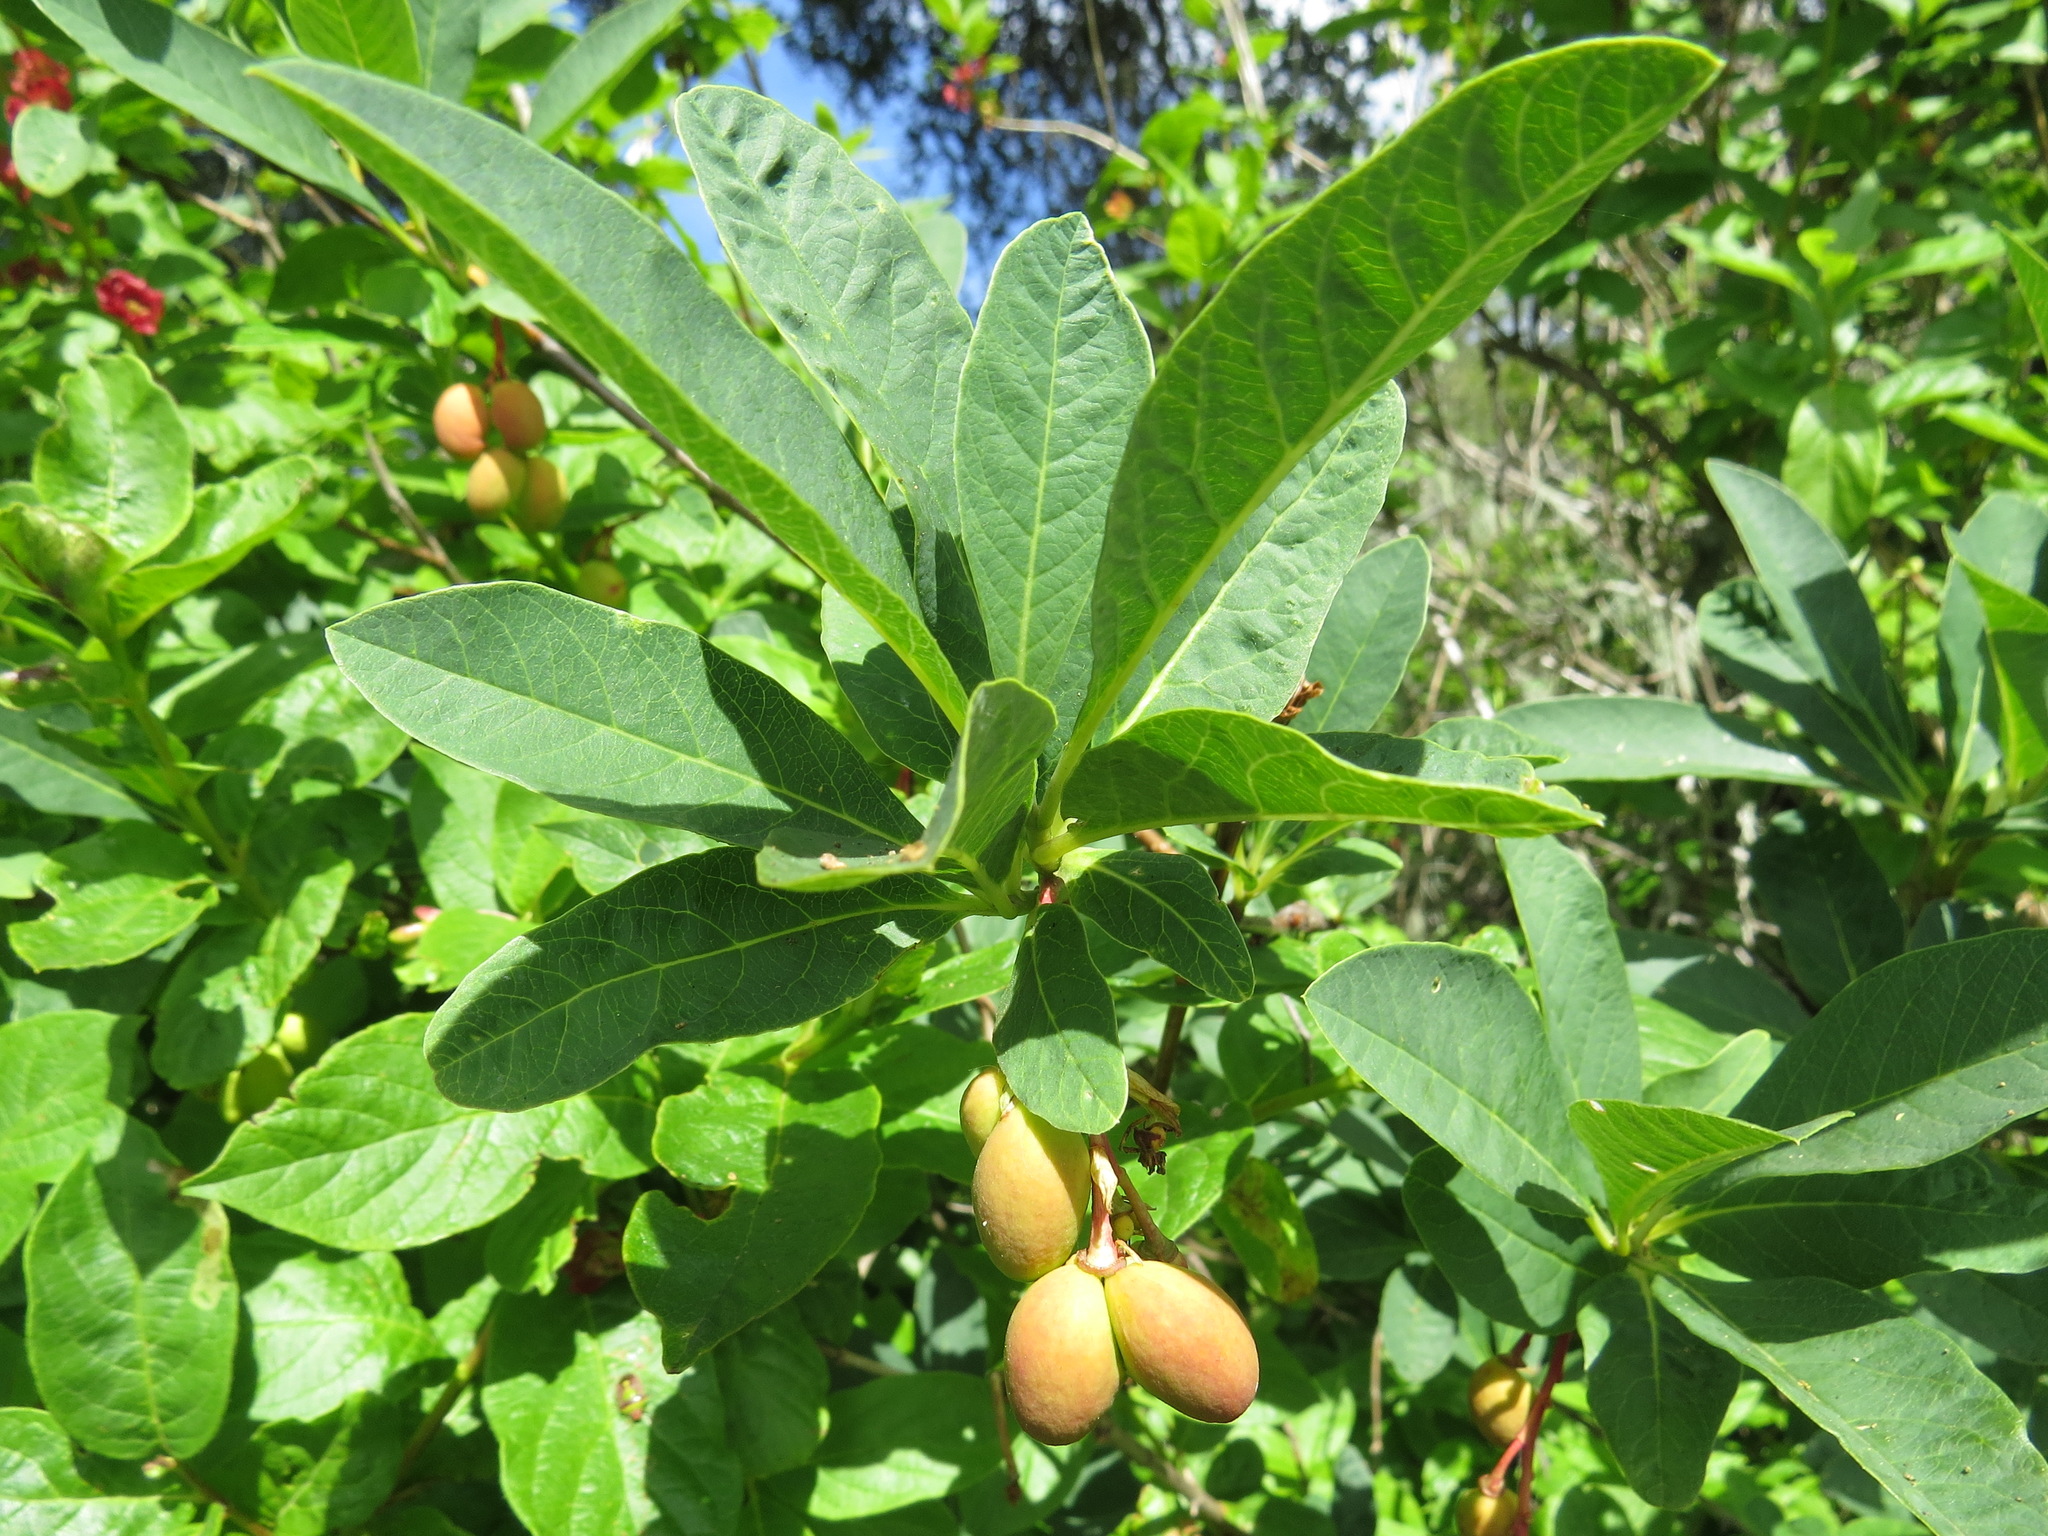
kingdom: Plantae
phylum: Tracheophyta
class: Magnoliopsida
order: Rosales
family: Rosaceae
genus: Oemleria
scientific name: Oemleria cerasiformis
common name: Osoberry
